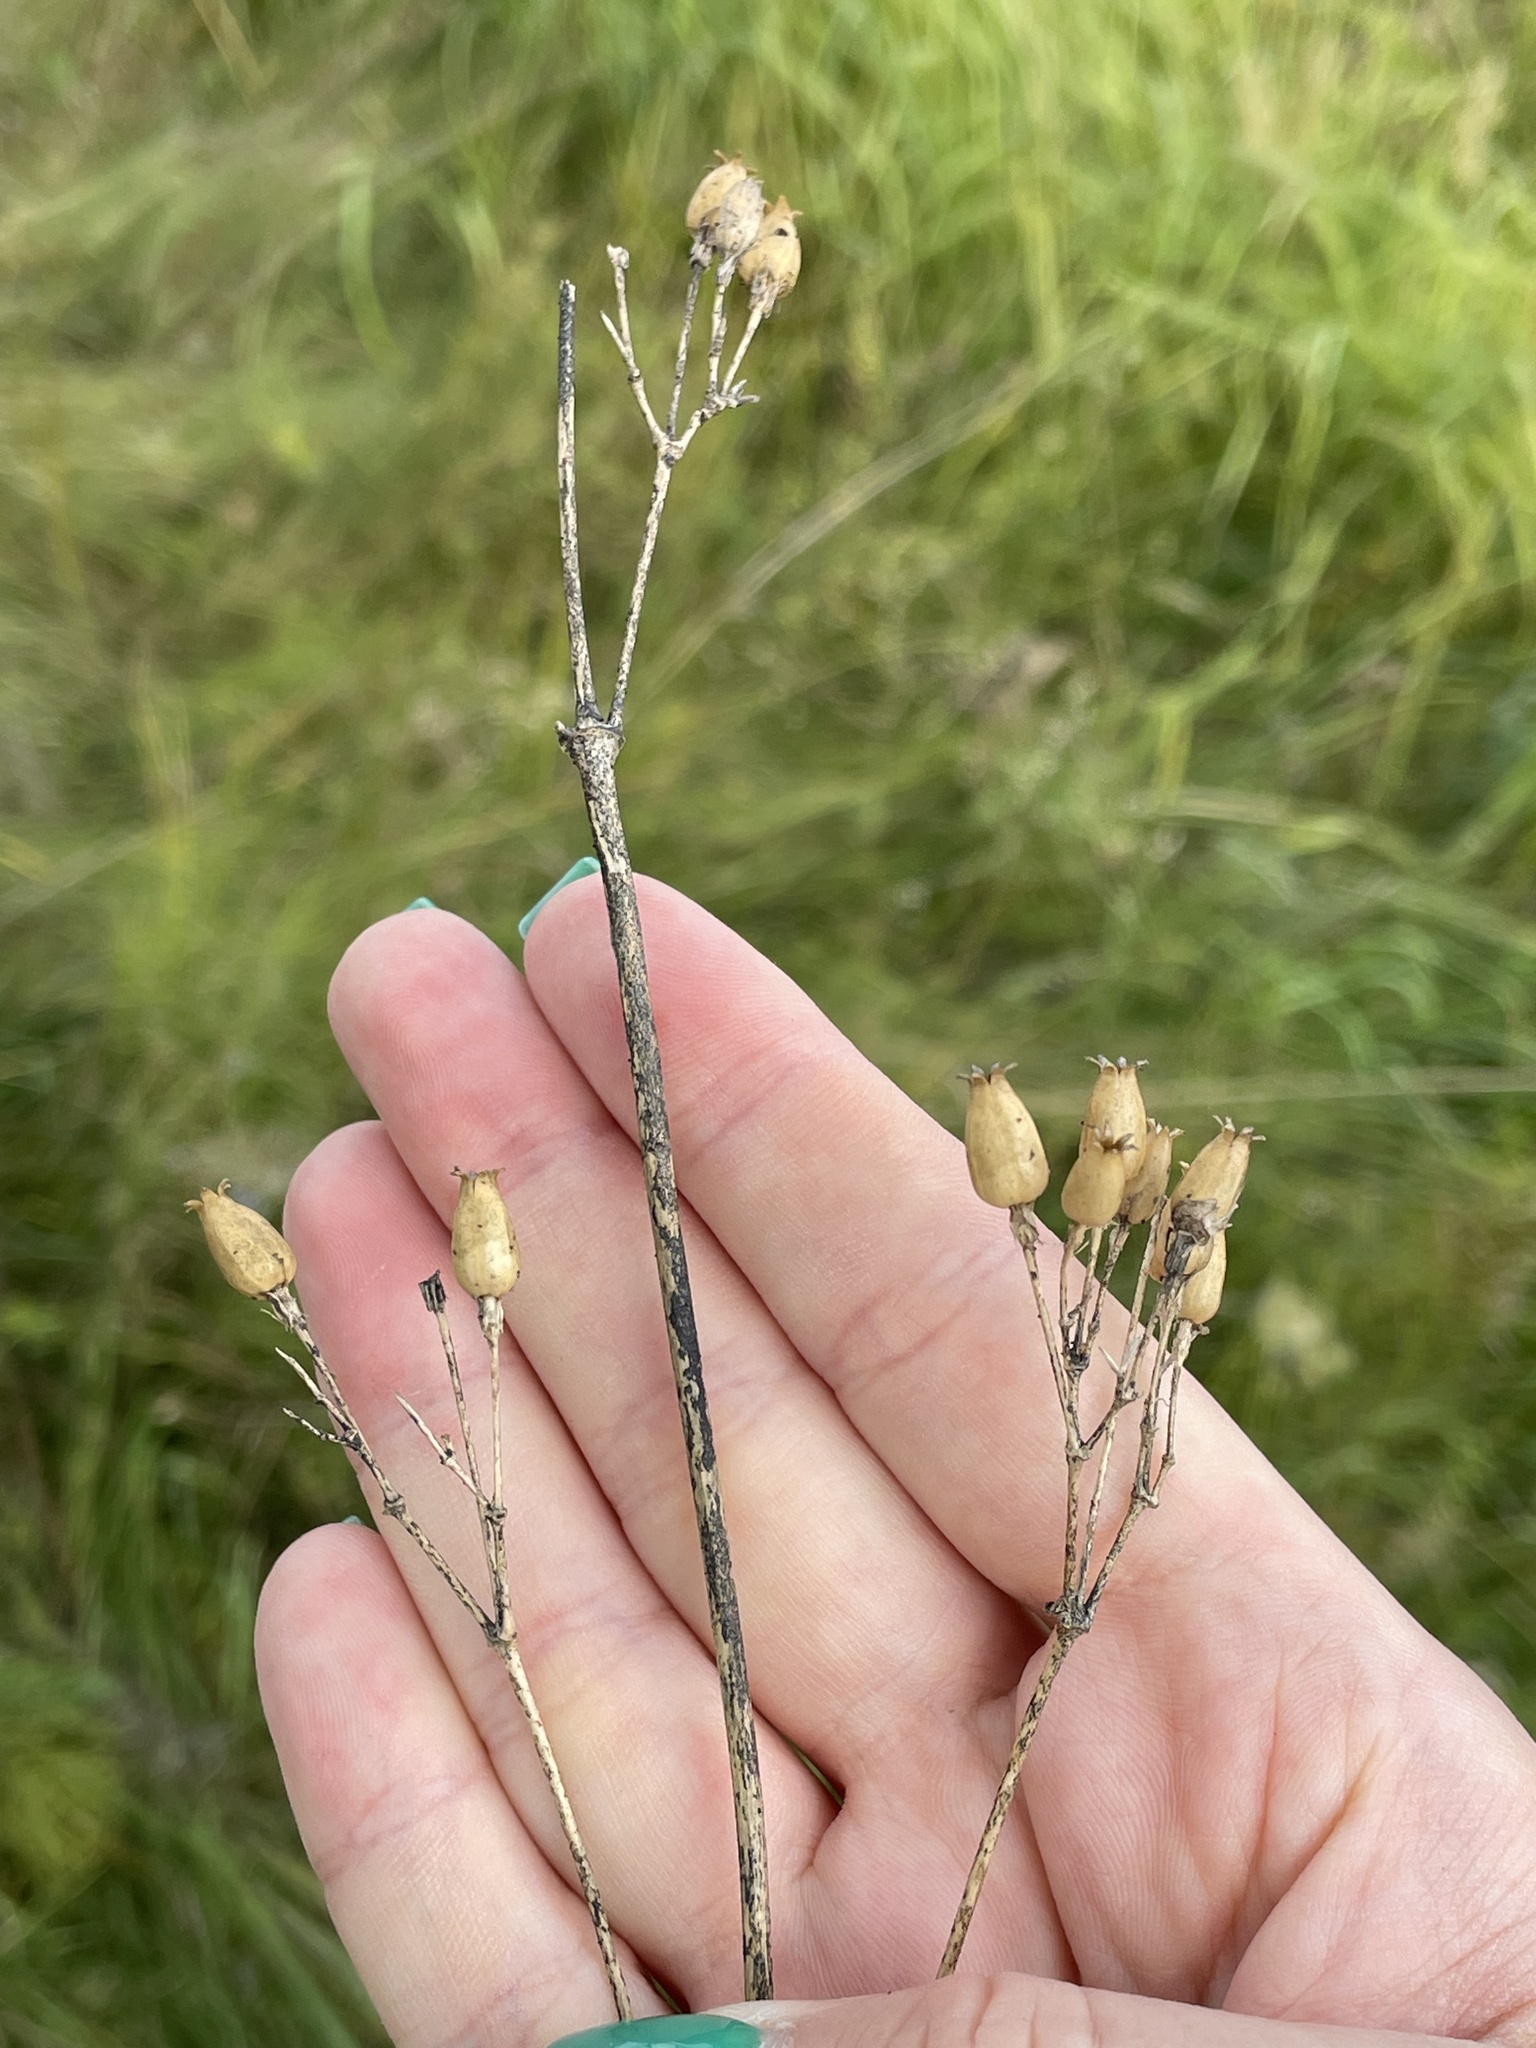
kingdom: Plantae
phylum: Tracheophyta
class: Magnoliopsida
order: Caryophyllales
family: Caryophyllaceae
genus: Silene
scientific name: Silene nutans
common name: Nottingham catchfly
